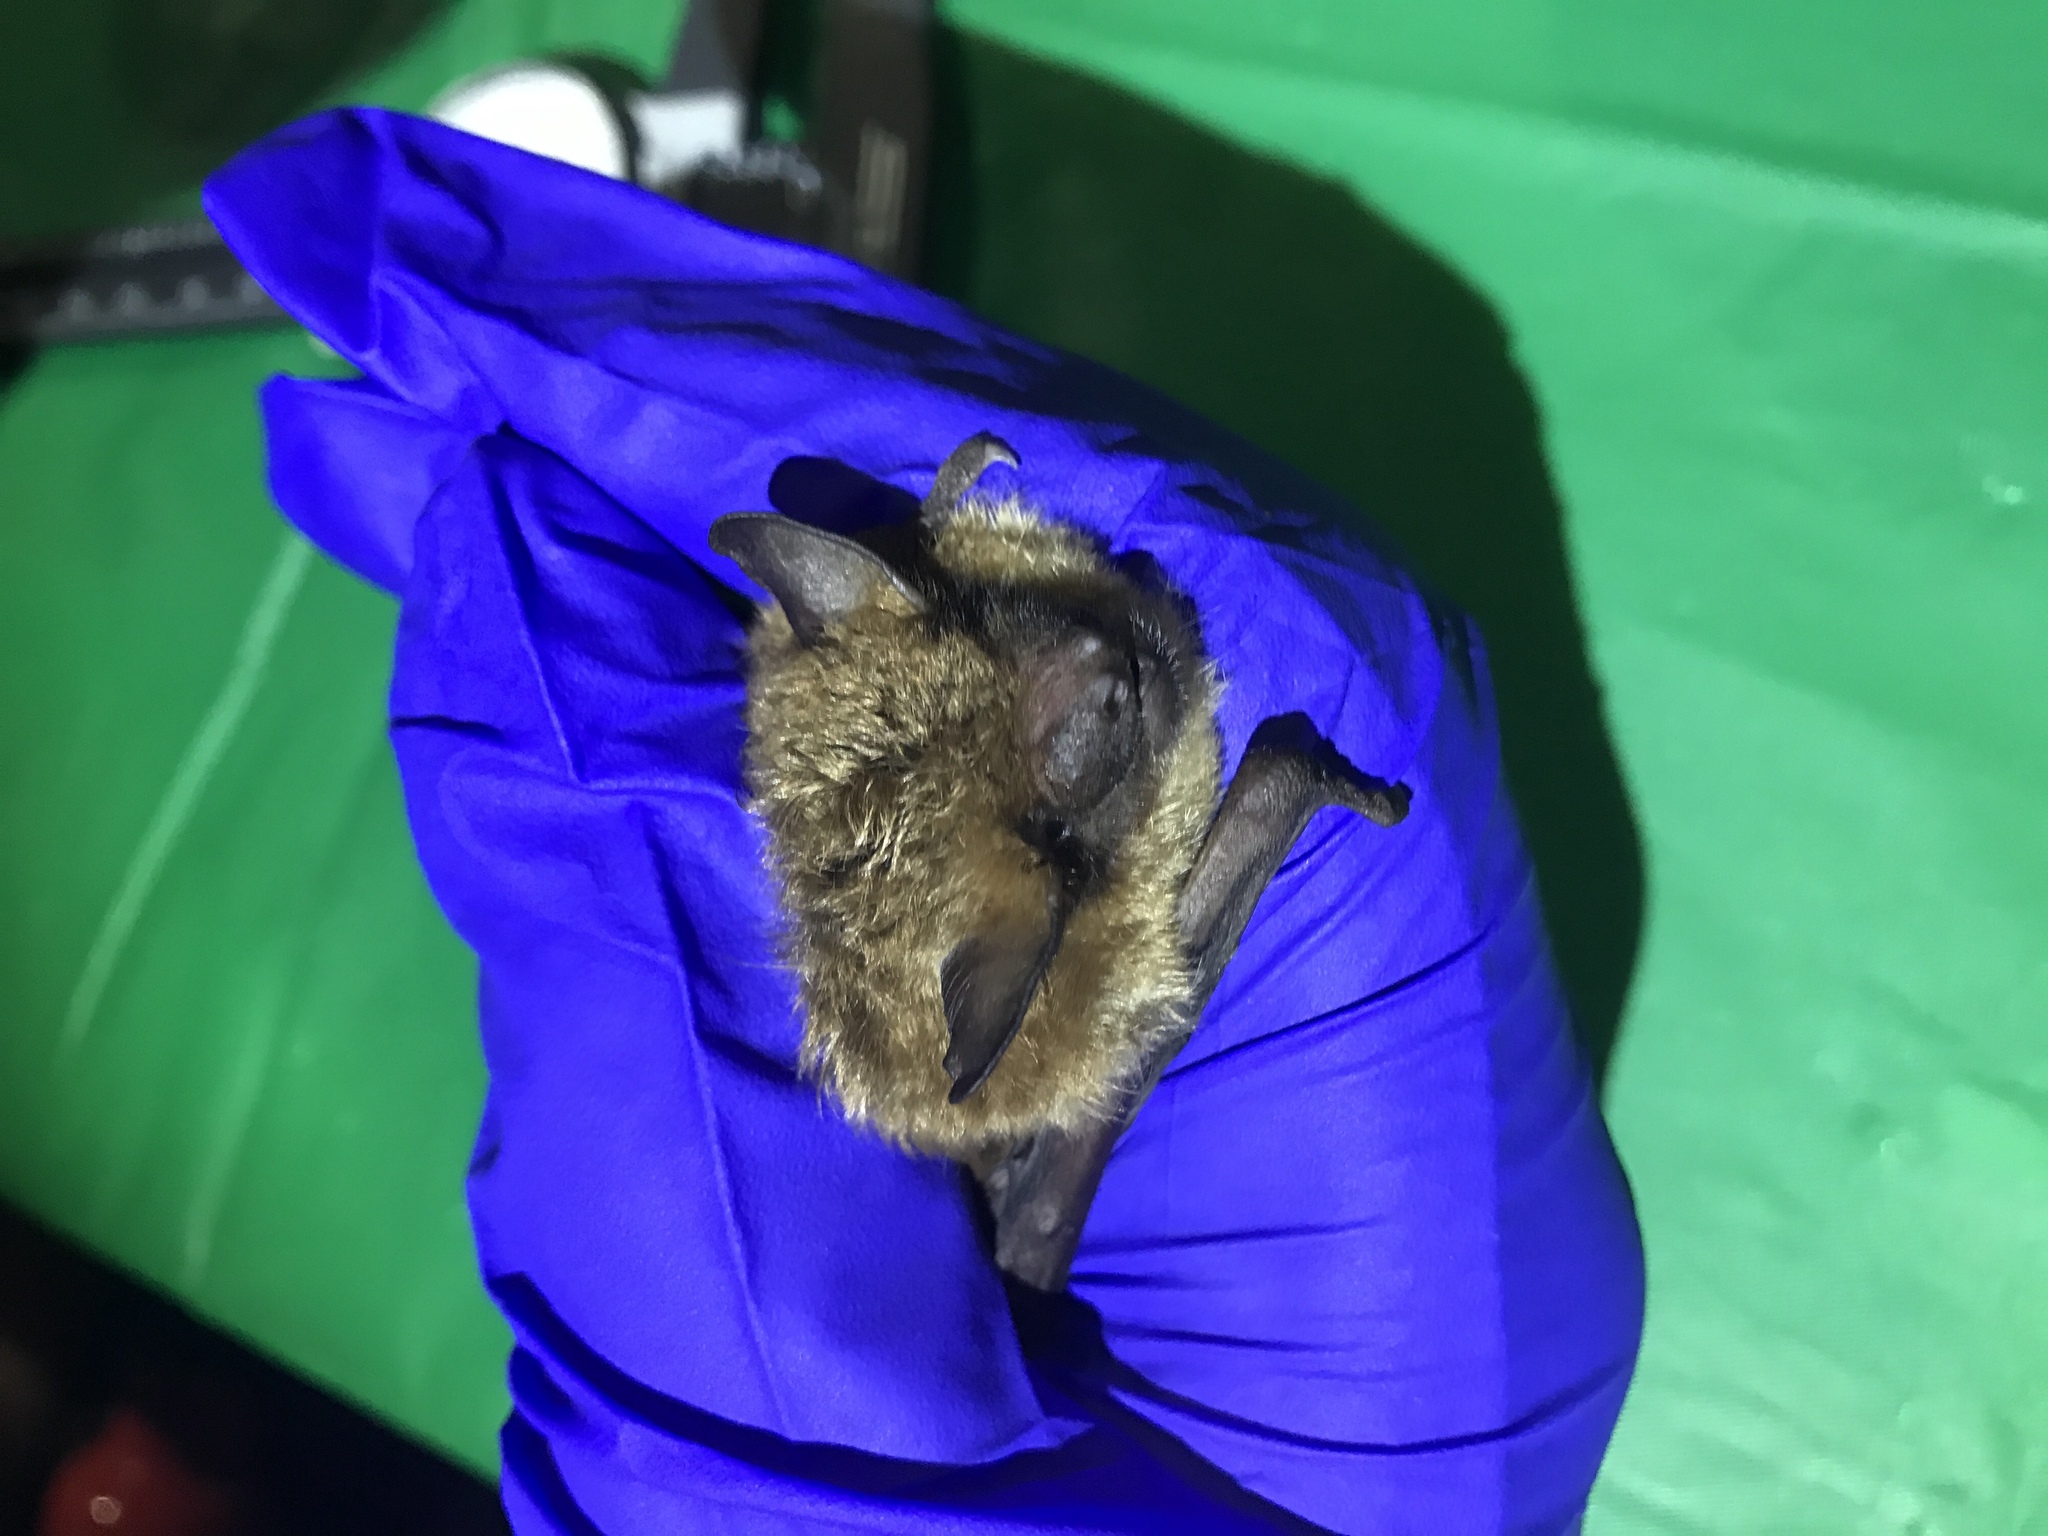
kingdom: Animalia
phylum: Chordata
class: Mammalia
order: Chiroptera
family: Vespertilionidae
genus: Eptesicus
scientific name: Eptesicus fuscus
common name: Big brown bat
